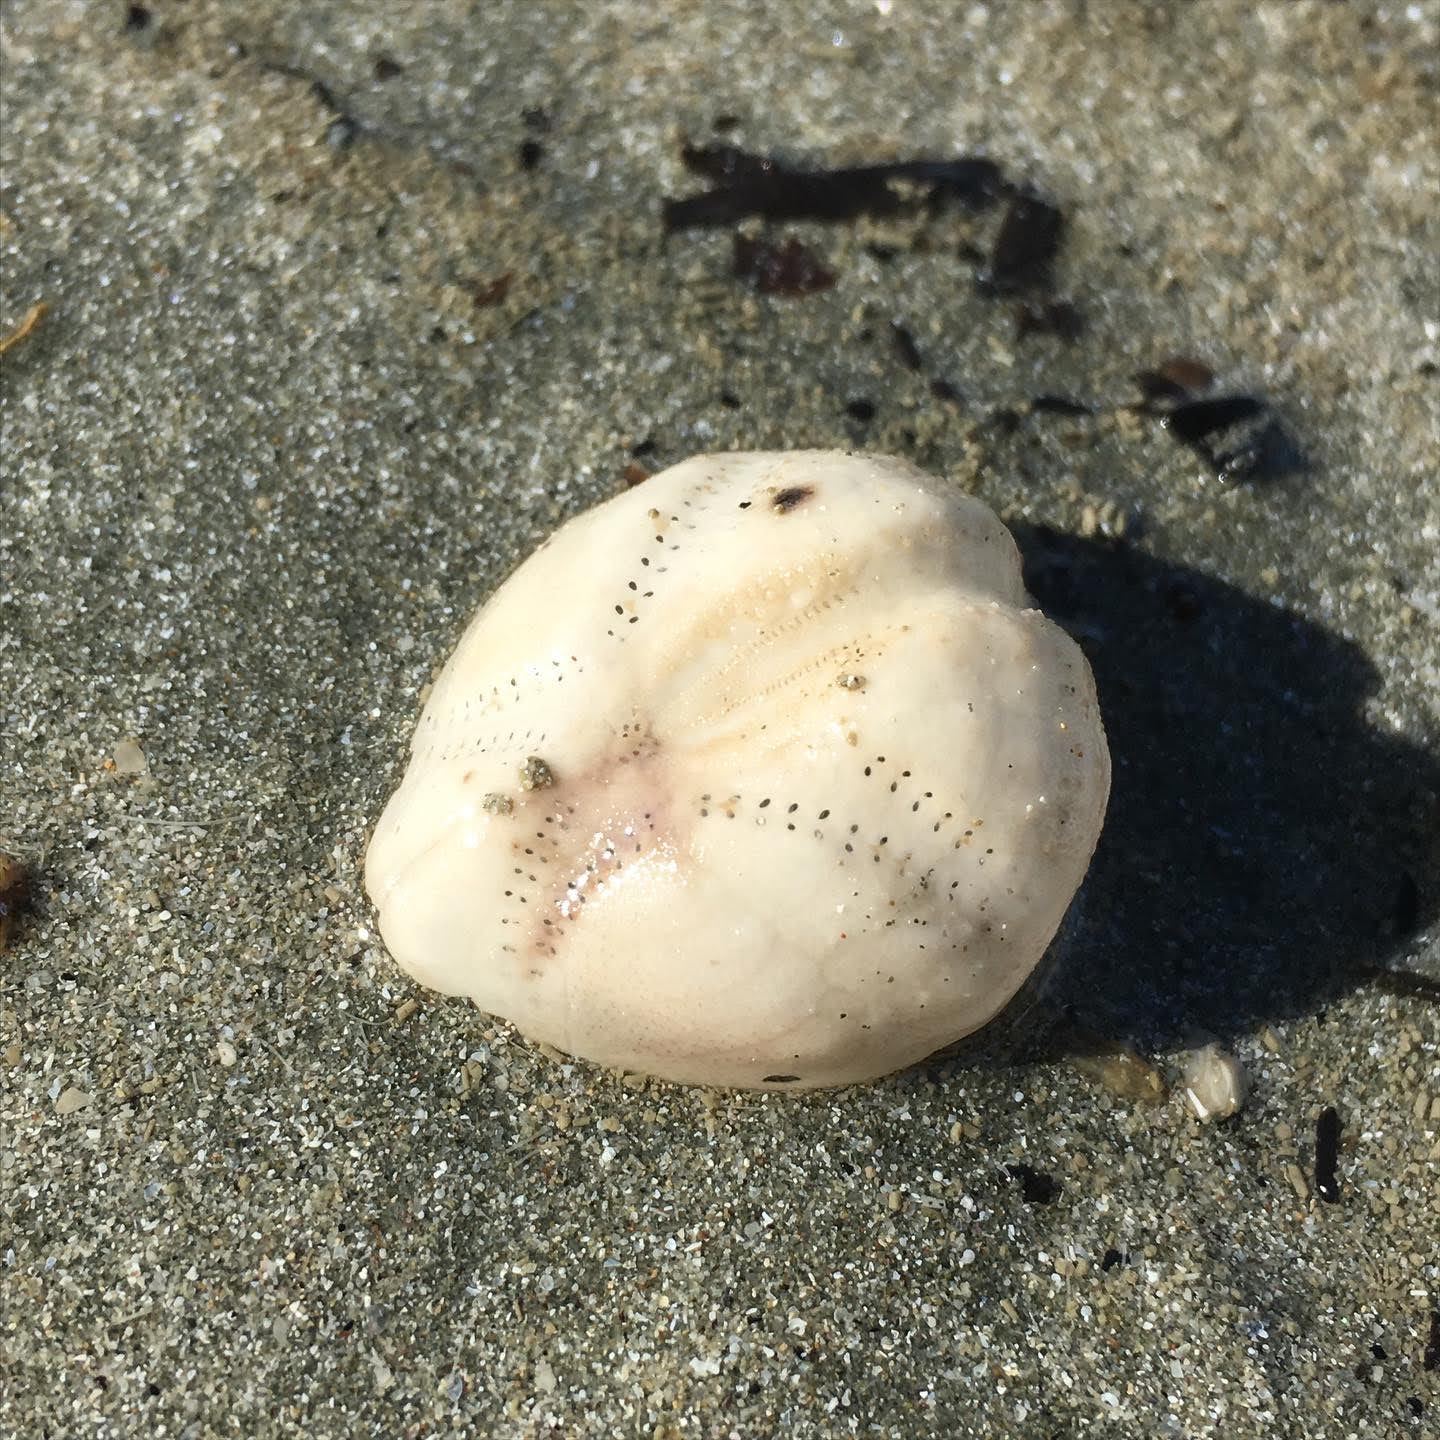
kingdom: Animalia
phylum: Echinodermata
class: Echinoidea
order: Spatangoida
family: Loveniidae
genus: Echinocardium
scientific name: Echinocardium cordatum
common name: Heart-urchin
